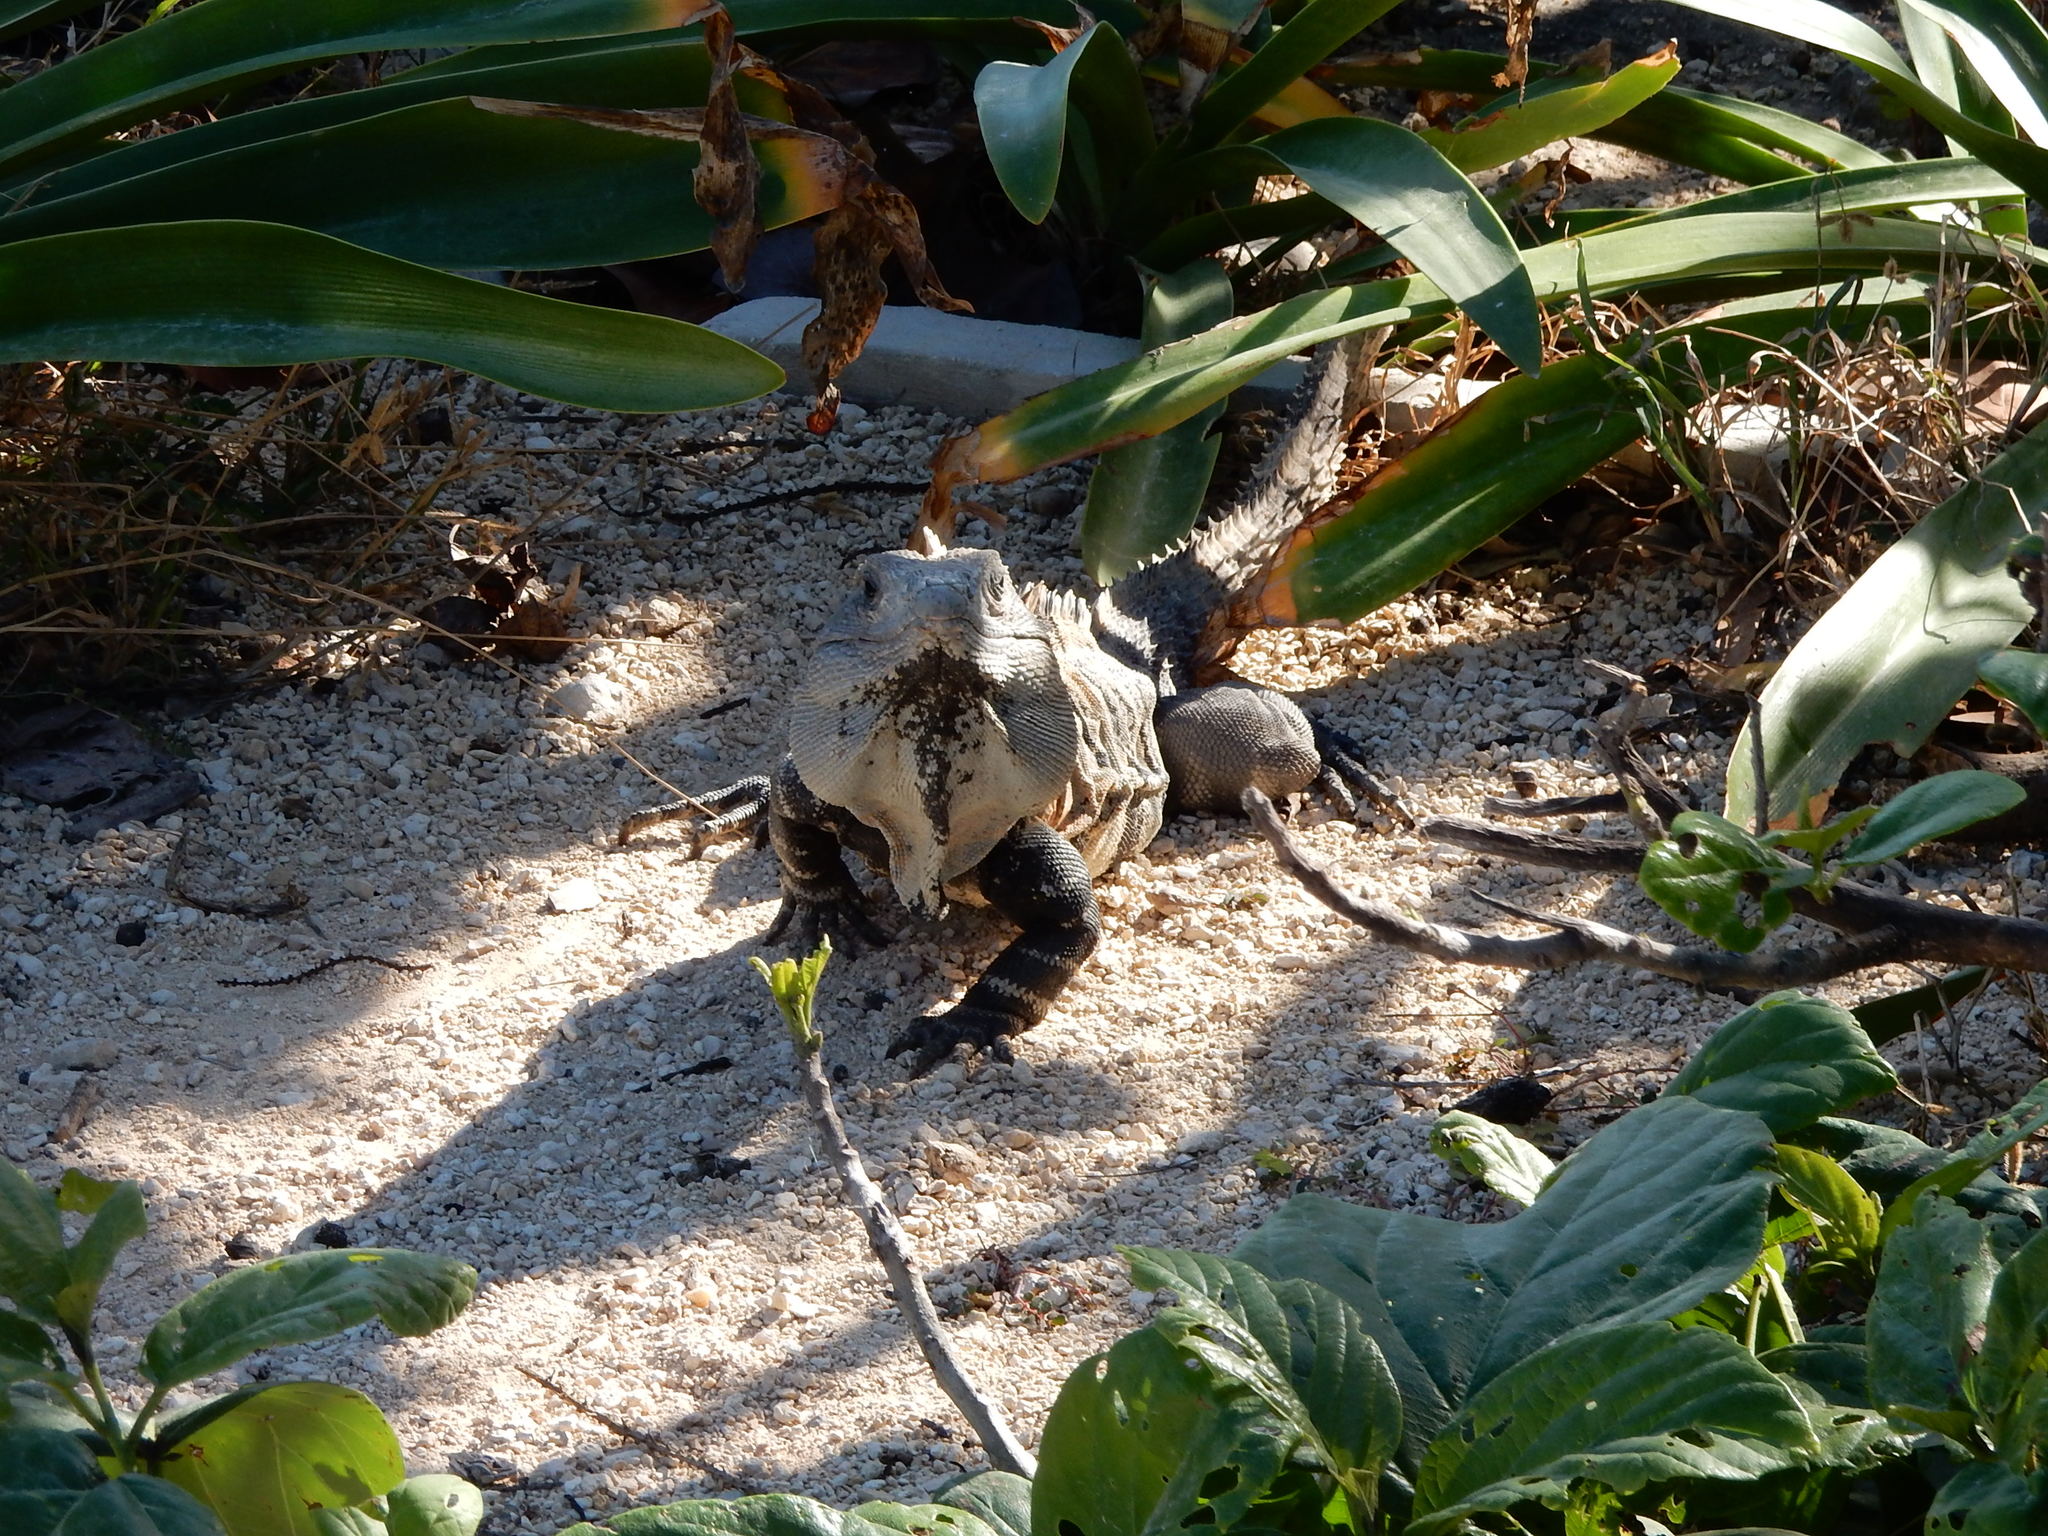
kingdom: Animalia
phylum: Chordata
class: Squamata
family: Iguanidae
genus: Ctenosaura
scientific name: Ctenosaura similis
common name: Black spiny-tailed iguana
